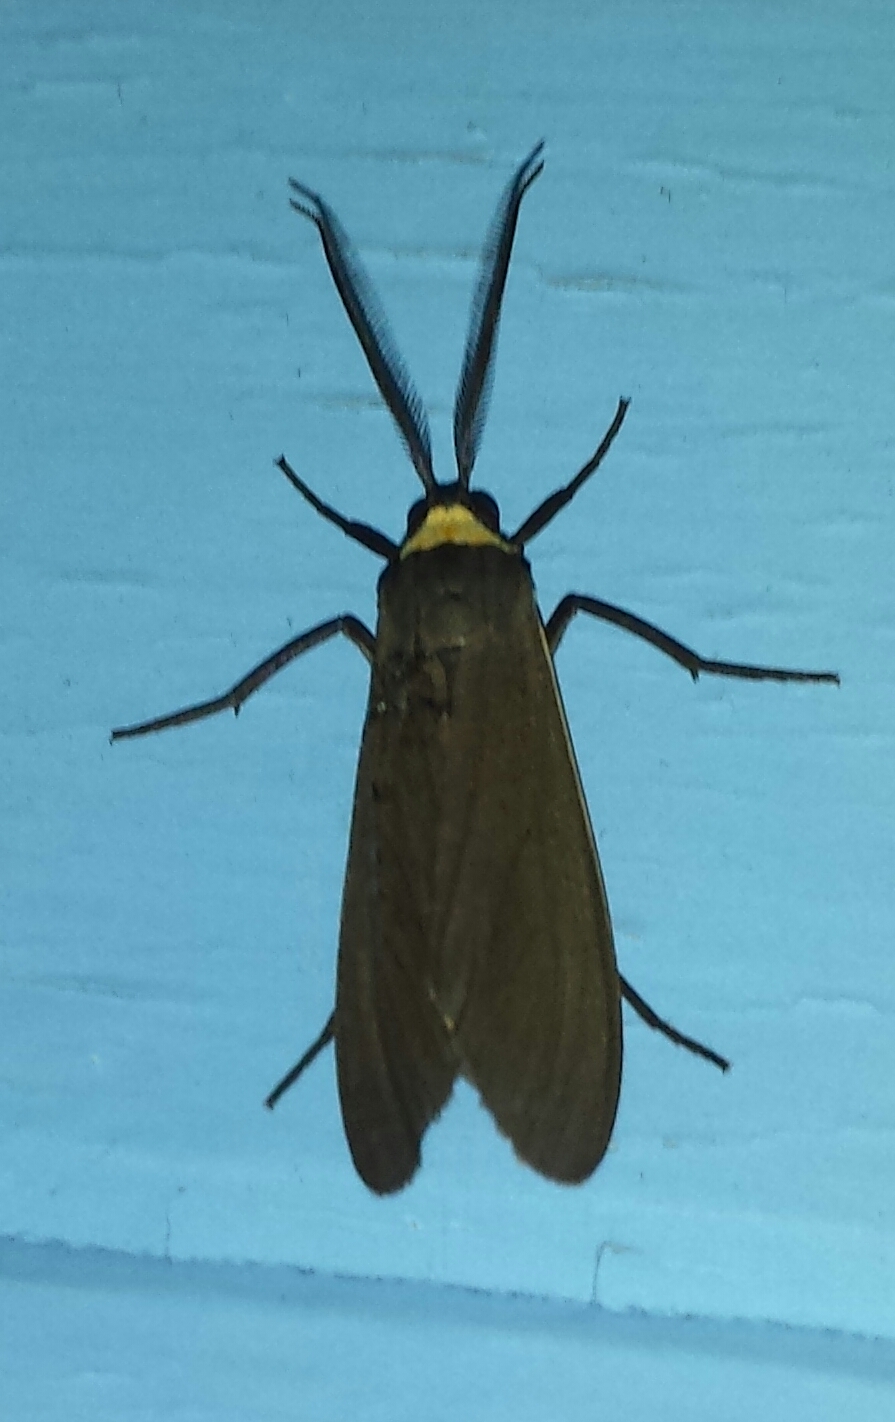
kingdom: Animalia
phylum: Arthropoda
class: Insecta
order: Lepidoptera
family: Erebidae
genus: Cisseps
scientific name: Cisseps fulvicollis
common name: Yellow-collared scape moth
